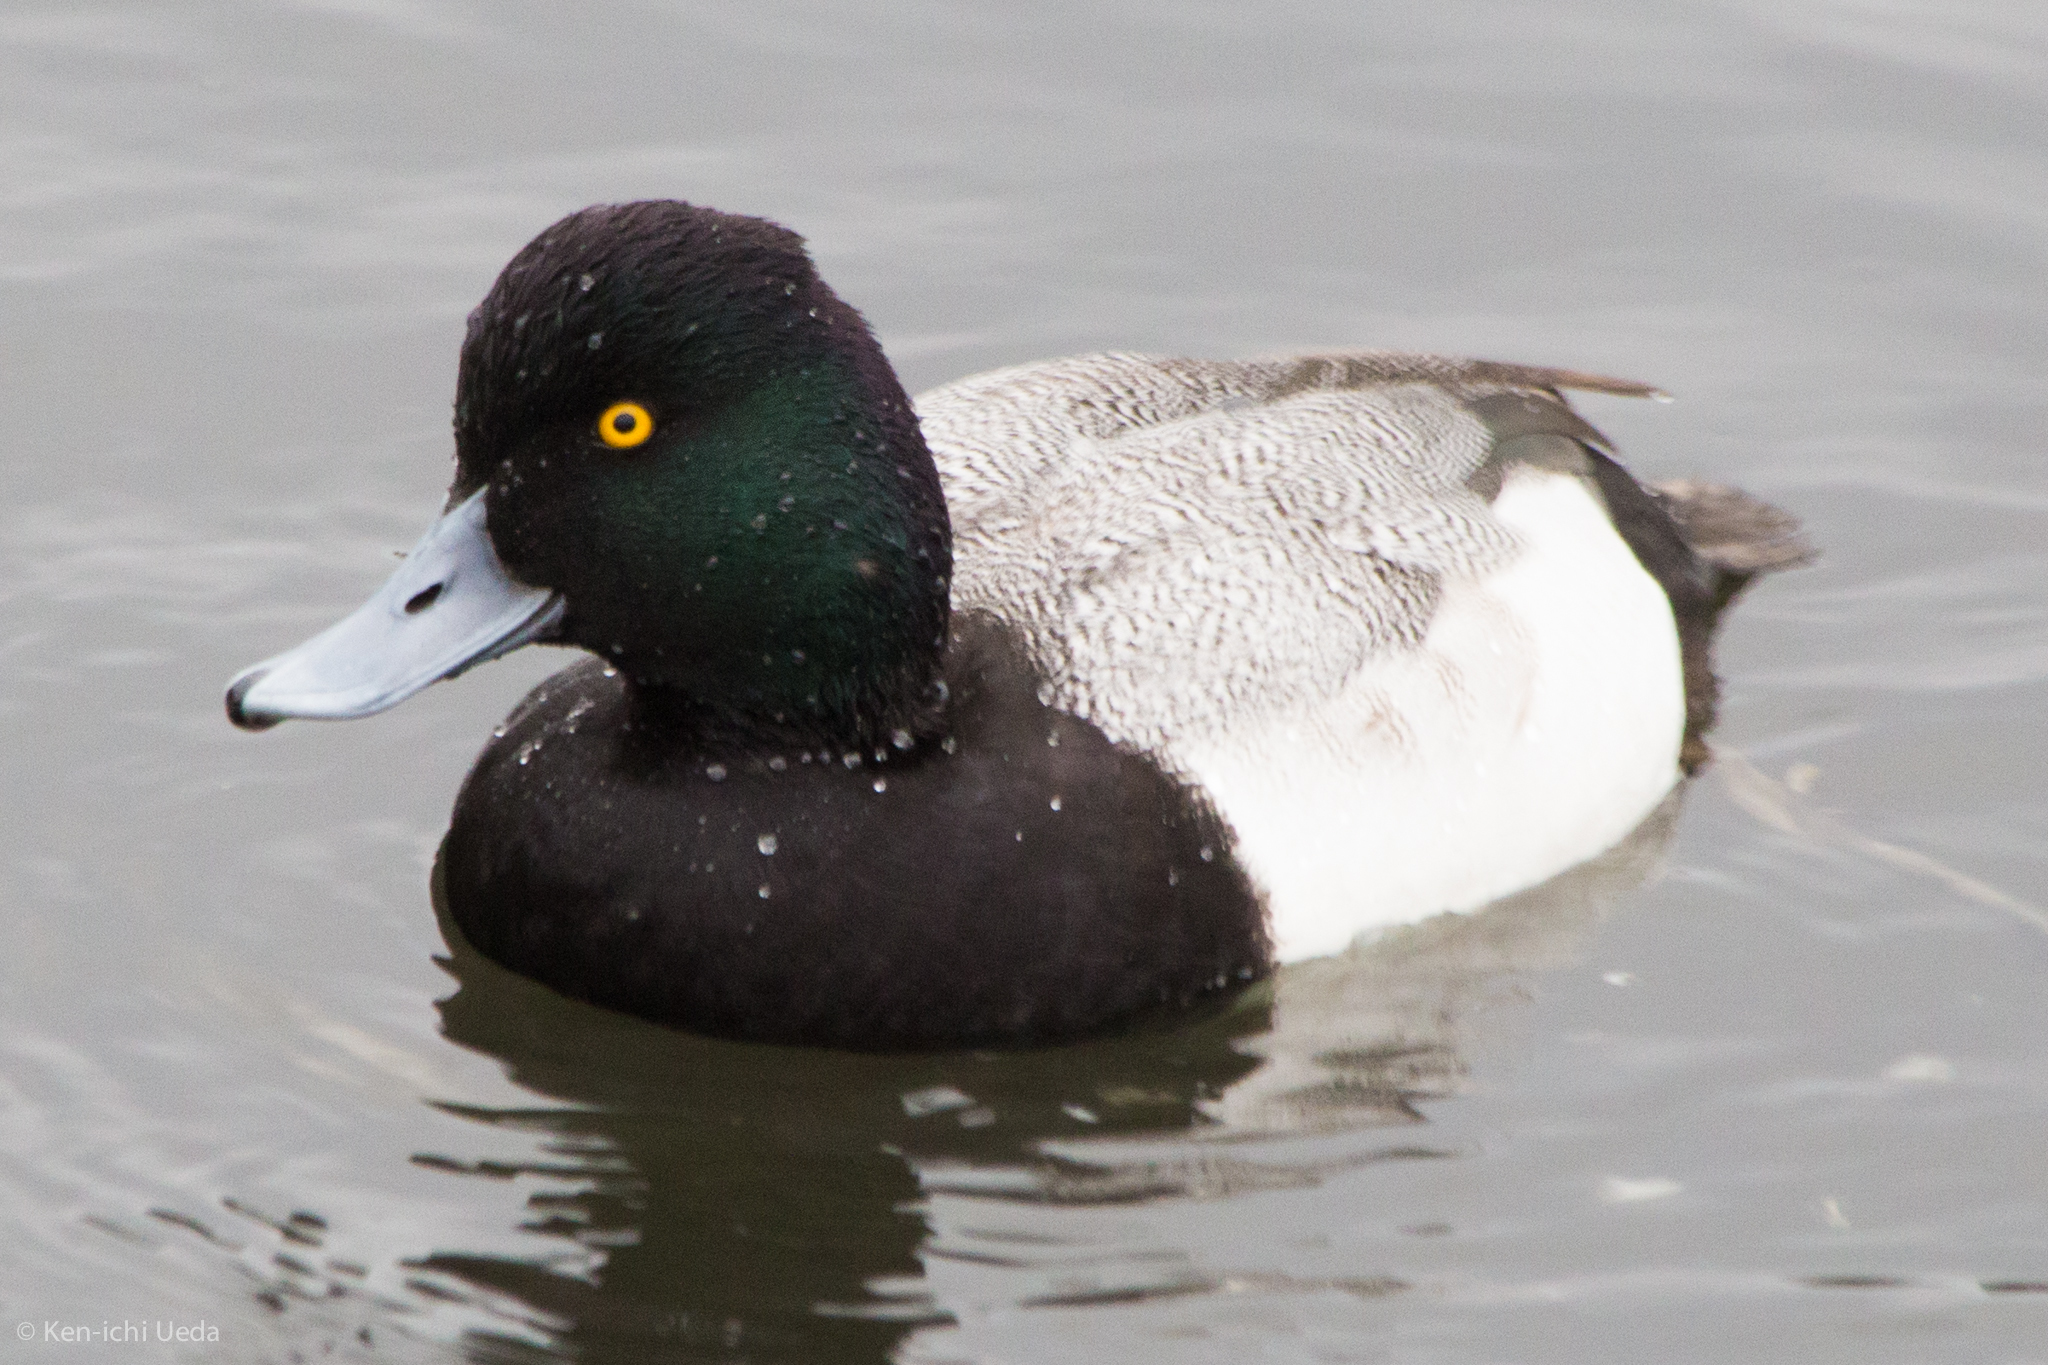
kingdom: Animalia
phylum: Chordata
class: Aves
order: Anseriformes
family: Anatidae
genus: Aythya
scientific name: Aythya affinis
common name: Lesser scaup
